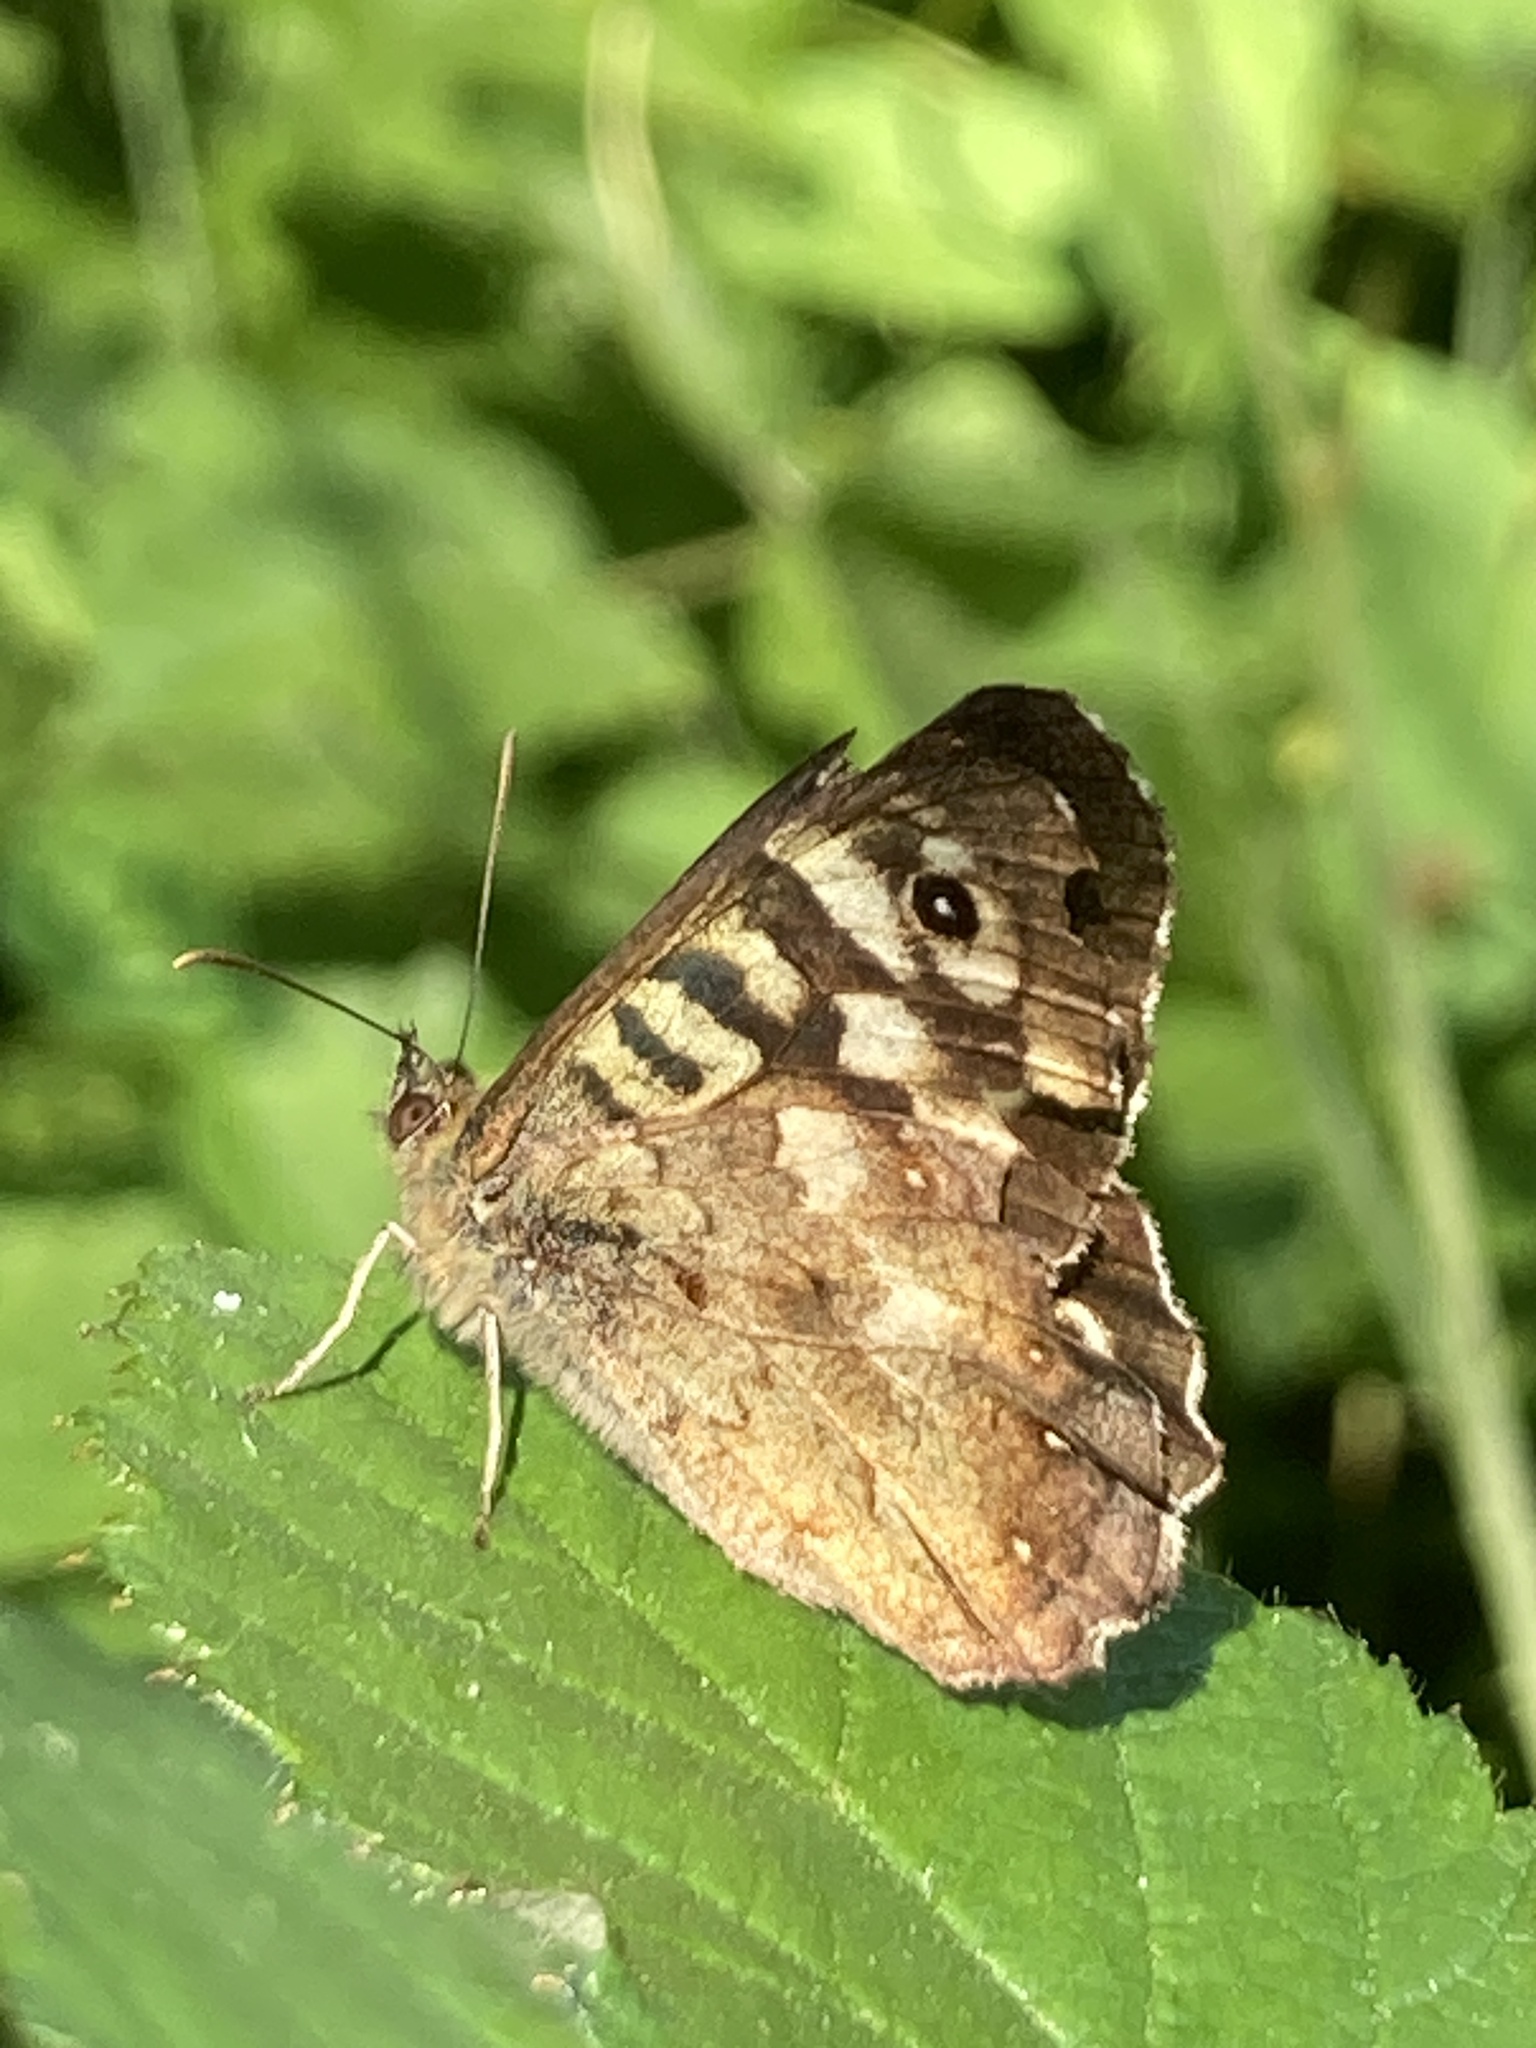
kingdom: Animalia
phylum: Arthropoda
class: Insecta
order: Lepidoptera
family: Nymphalidae
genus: Pararge
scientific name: Pararge aegeria
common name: Speckled wood
